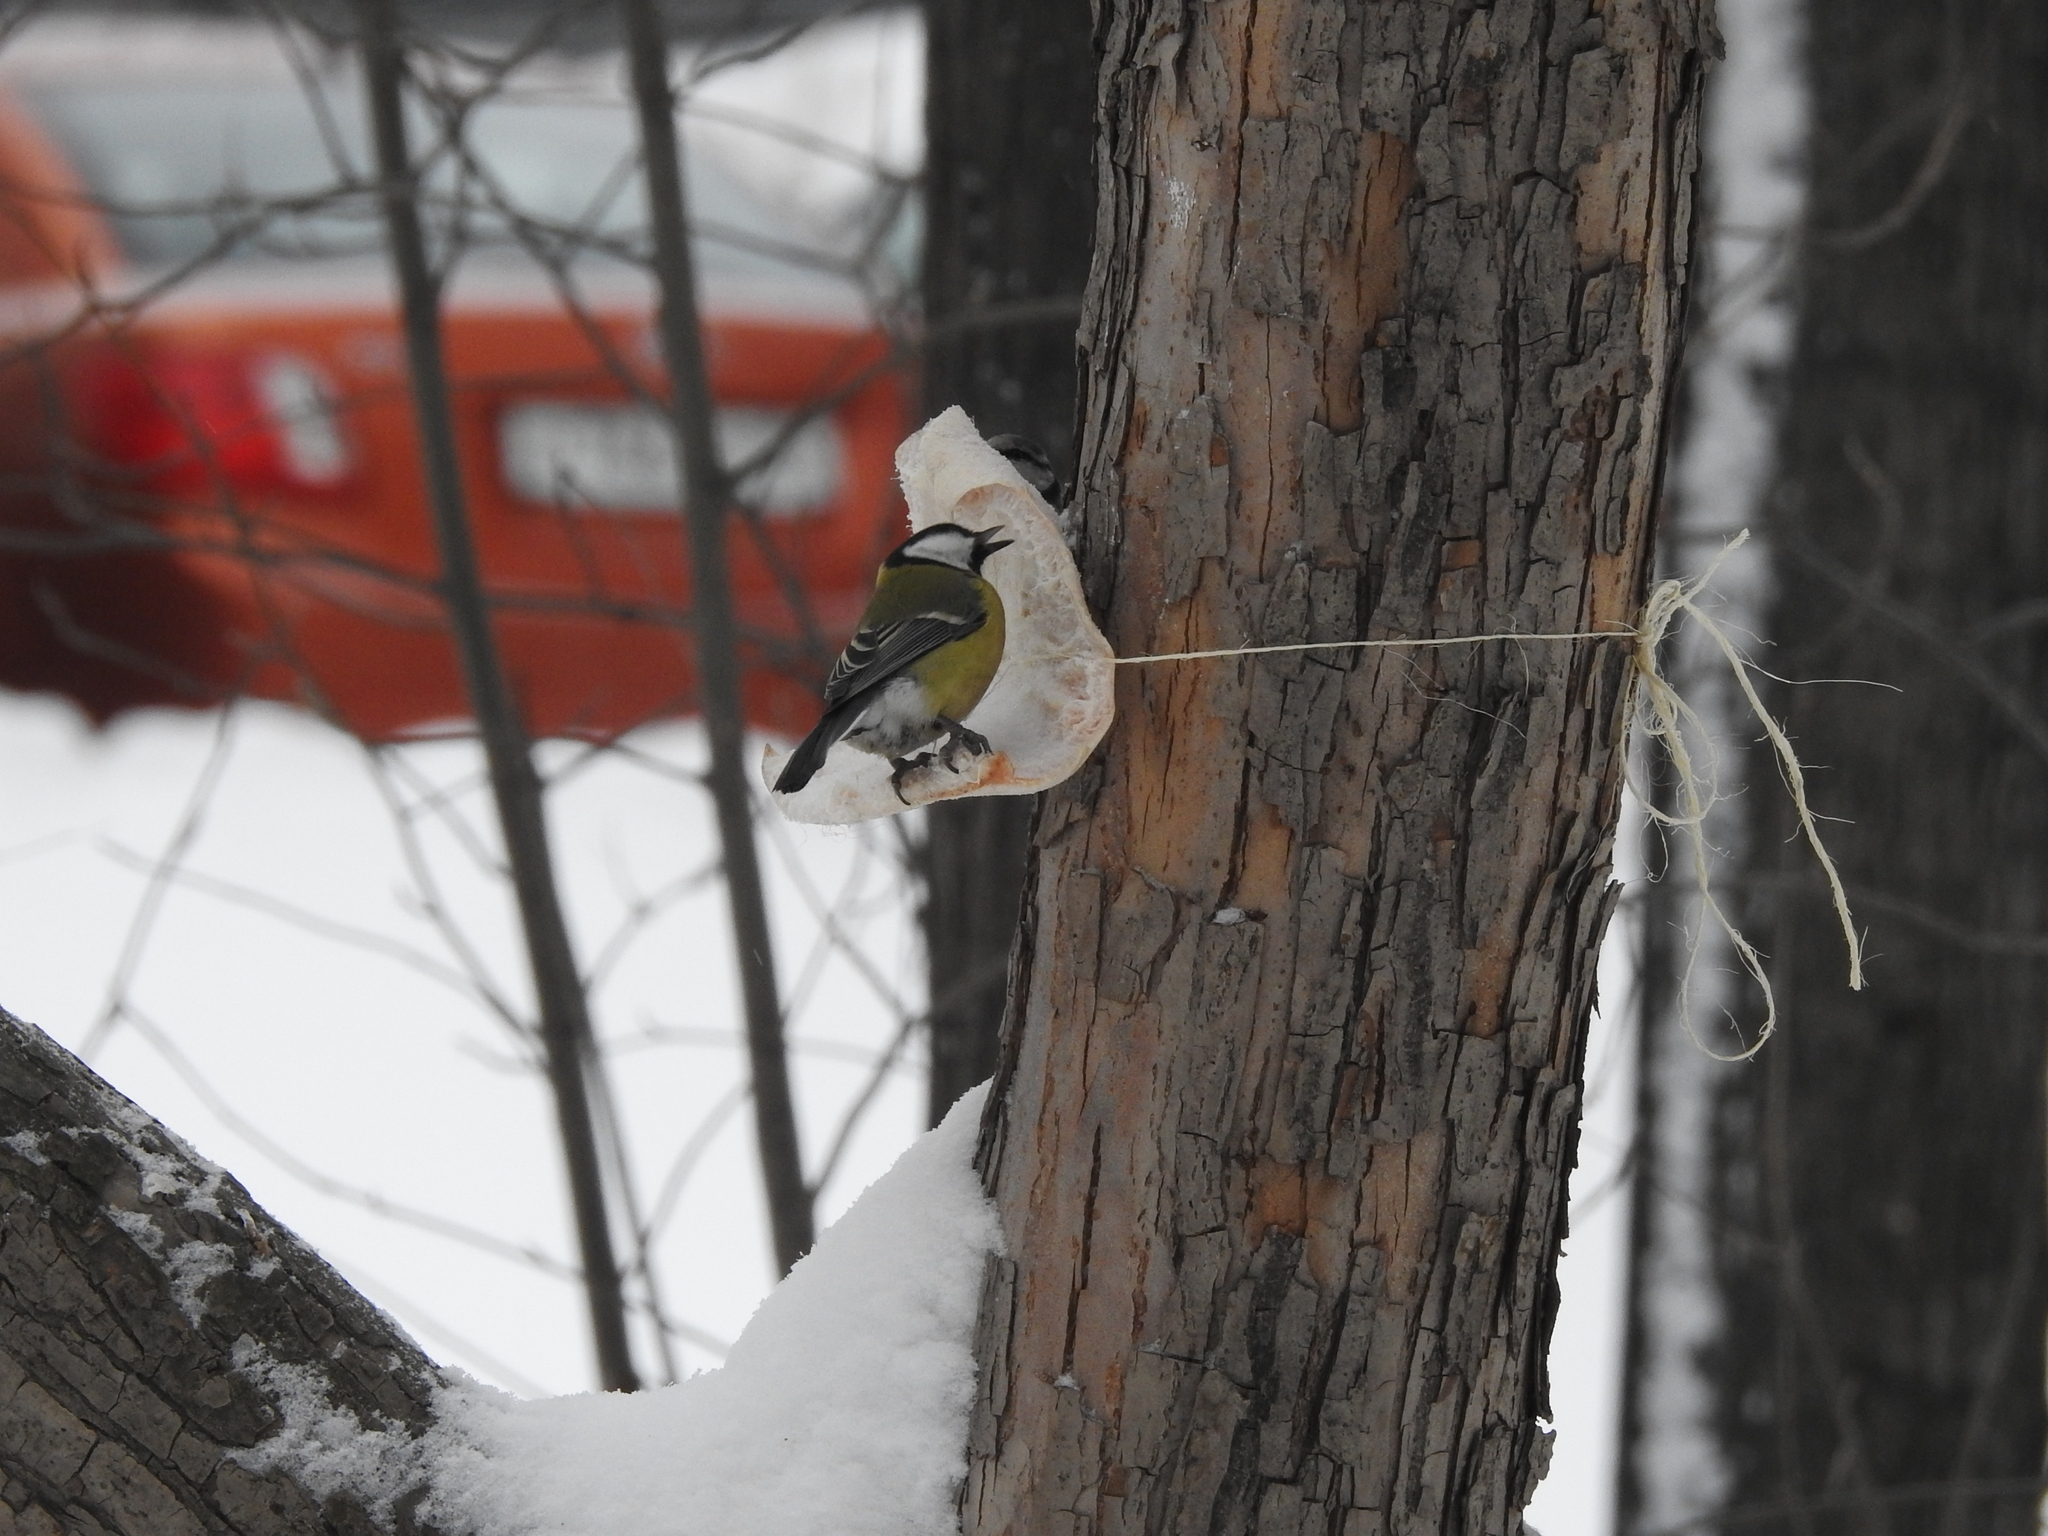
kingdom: Animalia
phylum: Chordata
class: Aves
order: Passeriformes
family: Paridae
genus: Parus
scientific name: Parus major
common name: Great tit
